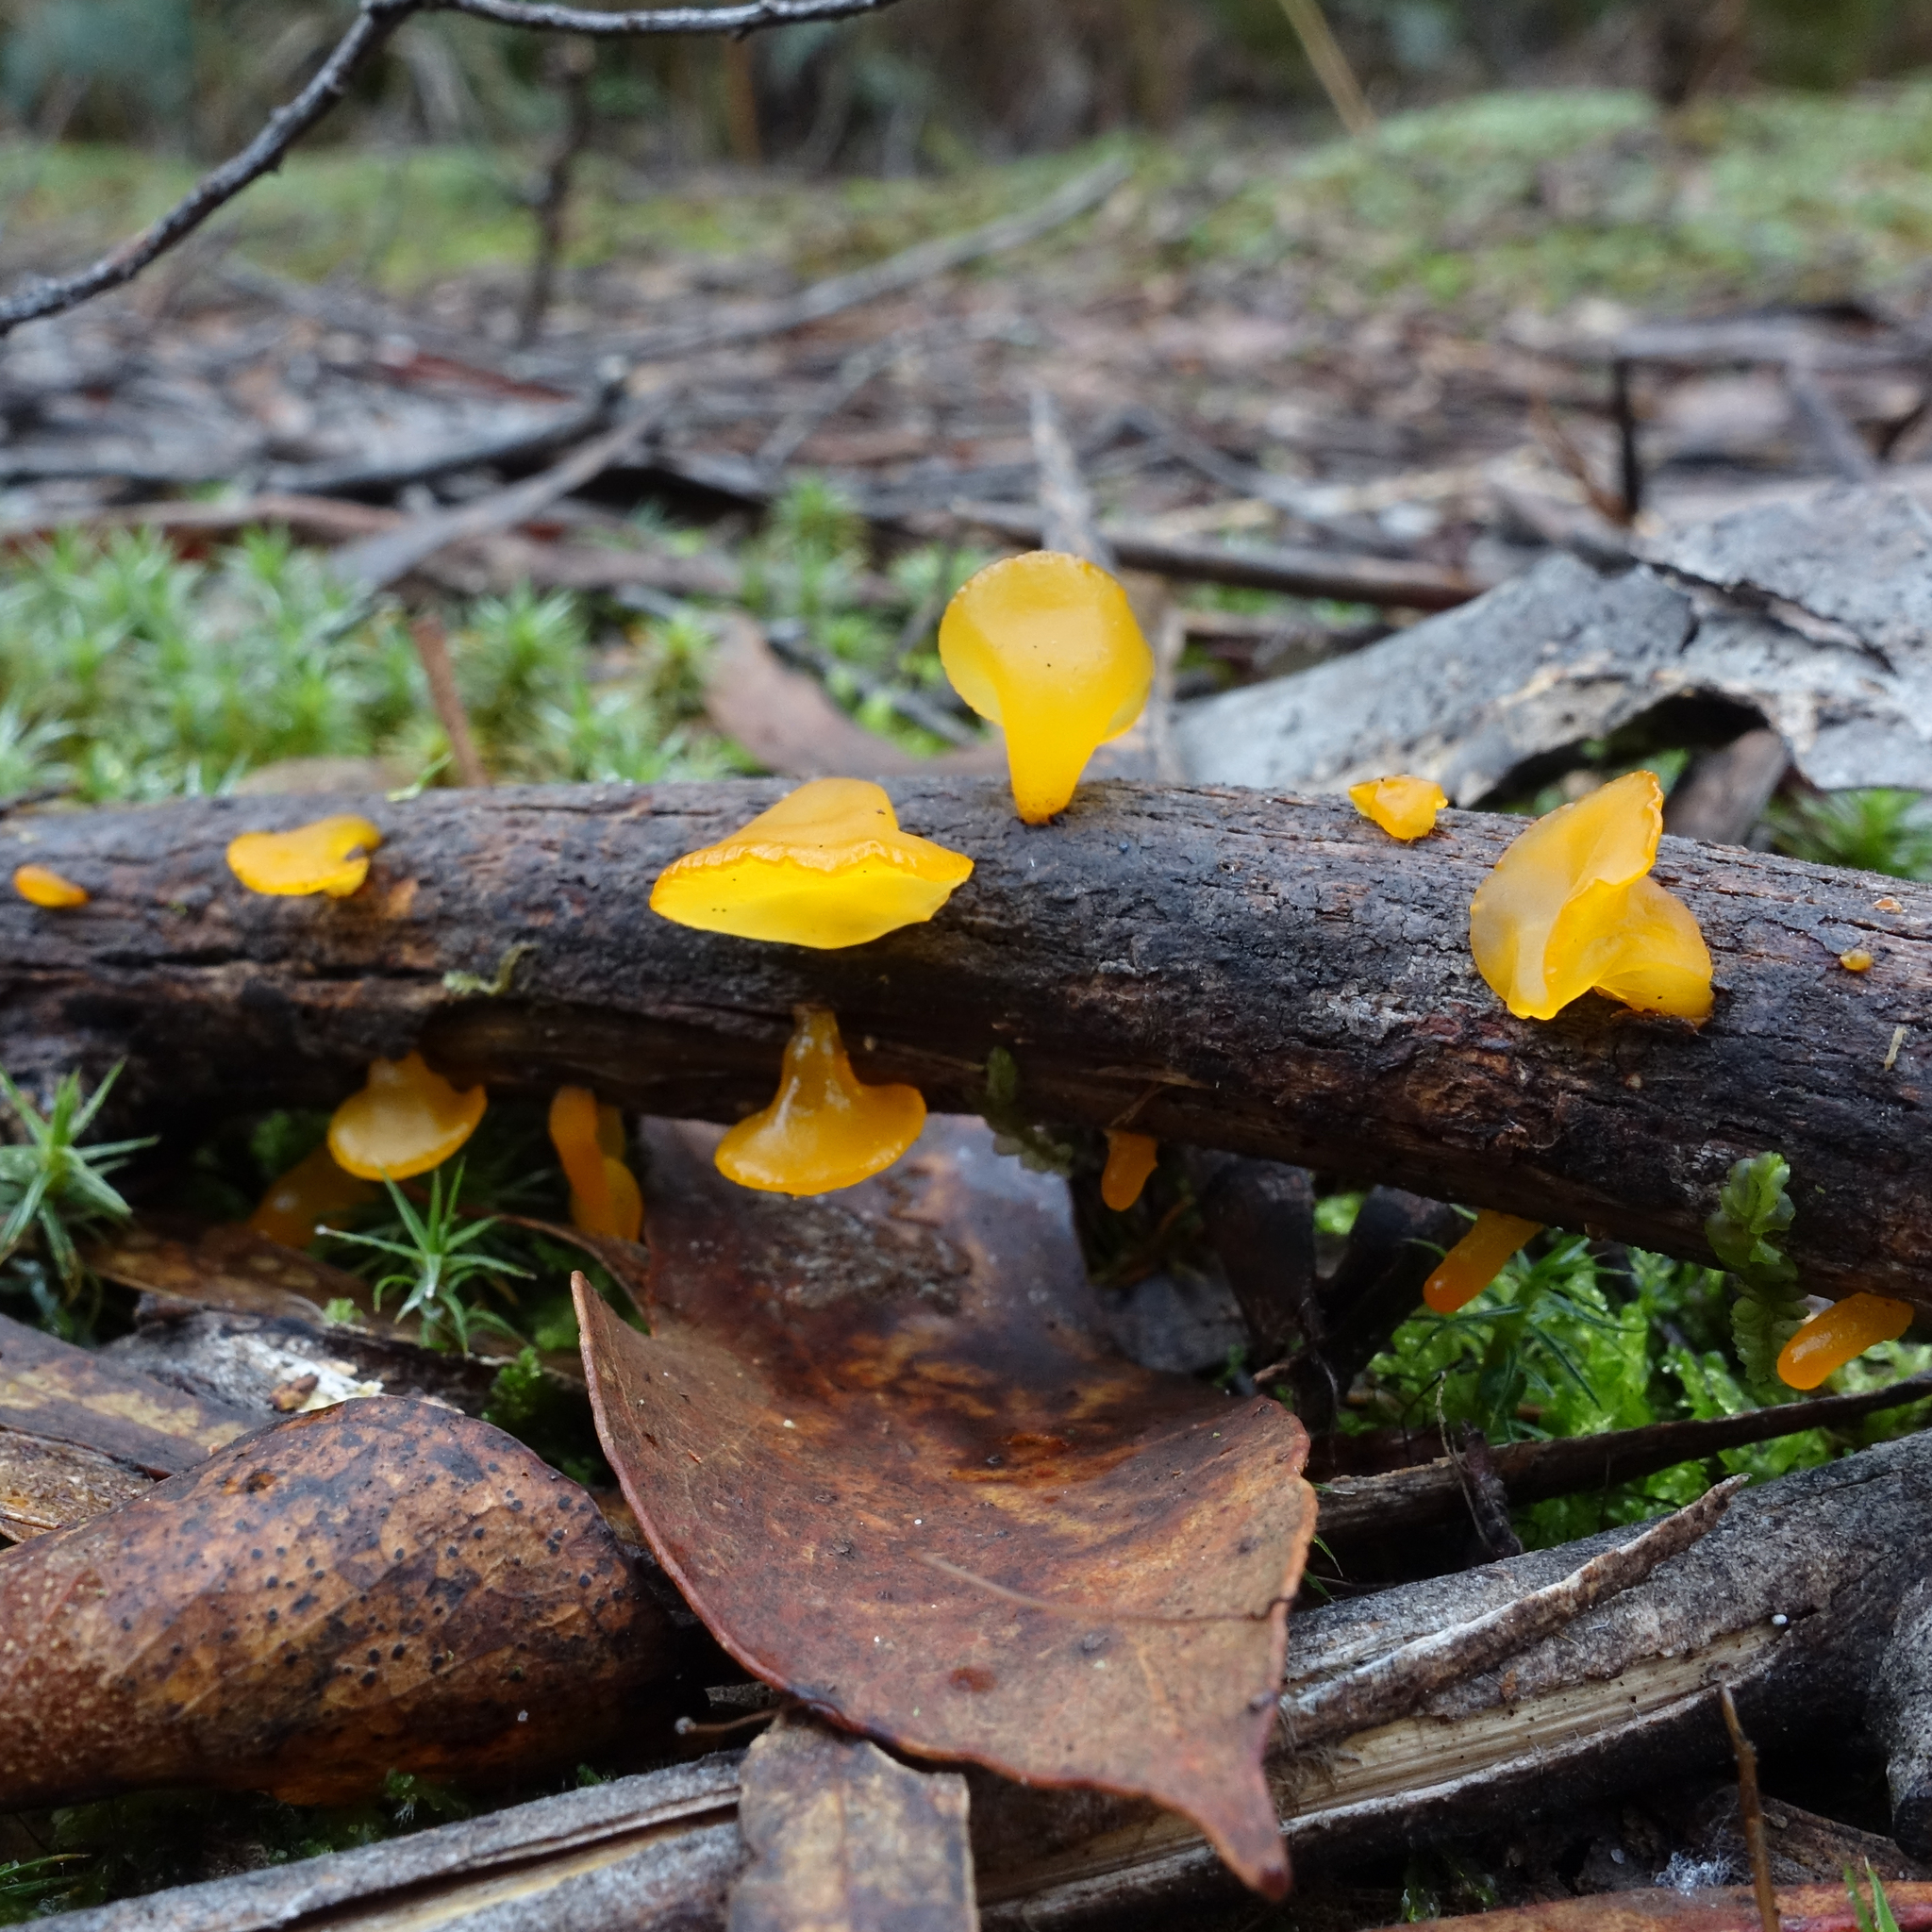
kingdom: Fungi
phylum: Basidiomycota
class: Dacrymycetes
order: Dacrymycetales
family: Dacrymycetaceae
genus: Heterotextus
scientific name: Heterotextus peziziformis
